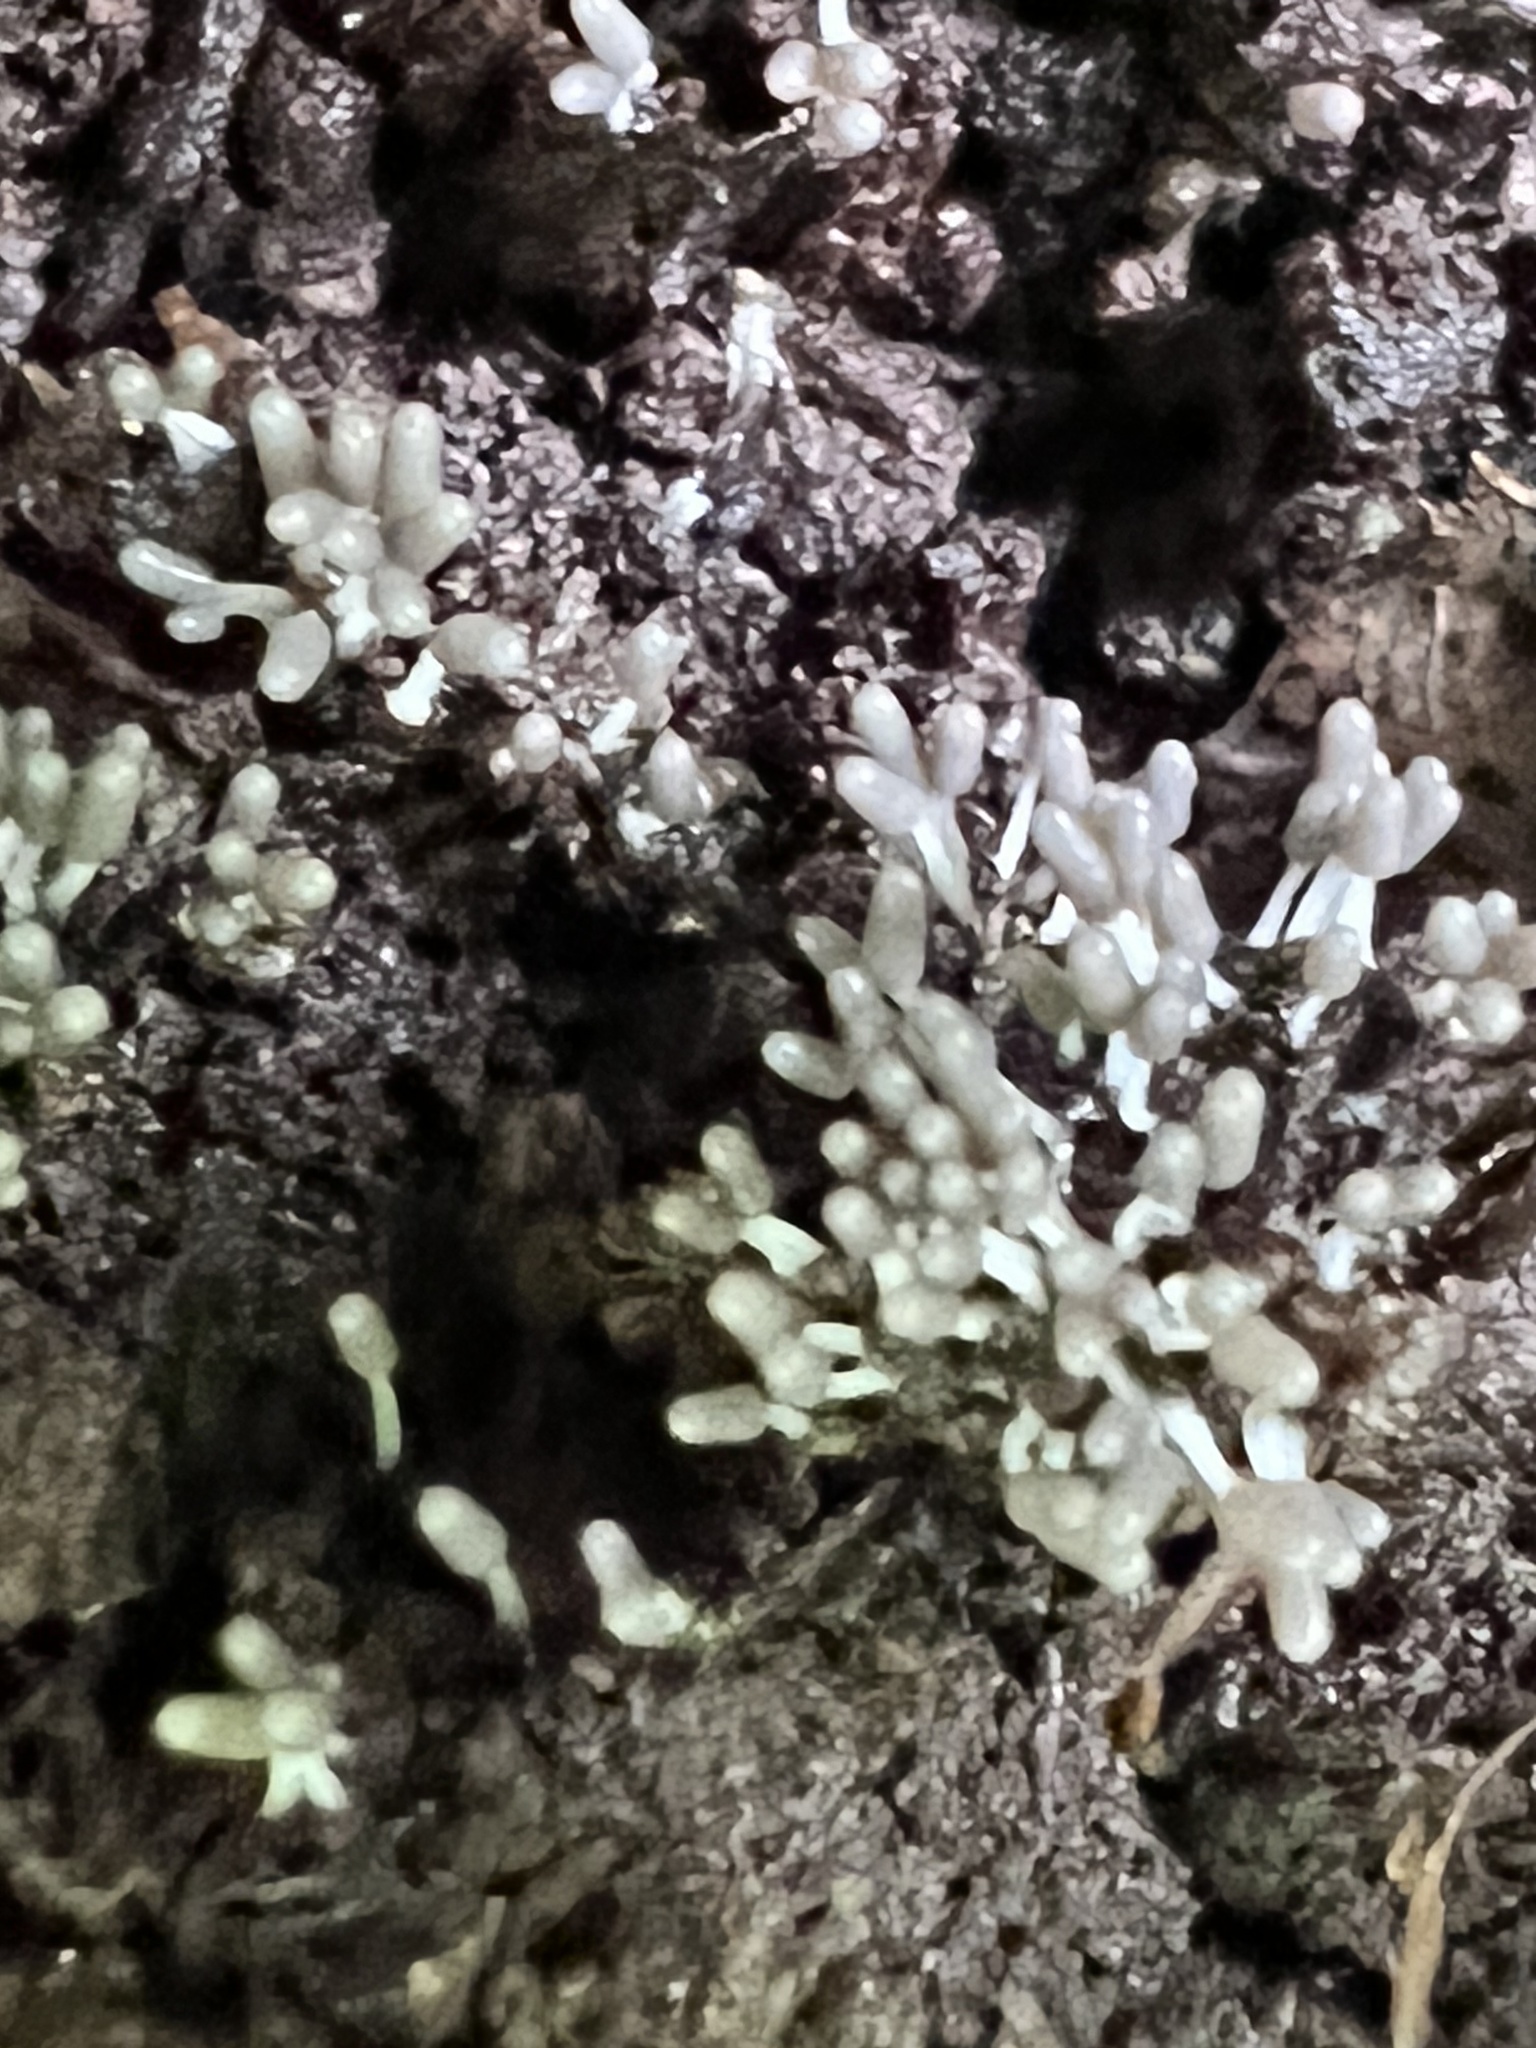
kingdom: Protozoa
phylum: Mycetozoa
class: Myxomycetes
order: Trichiales
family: Arcyriaceae
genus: Arcyria
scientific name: Arcyria cinerea
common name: White carnival candy slime mold
